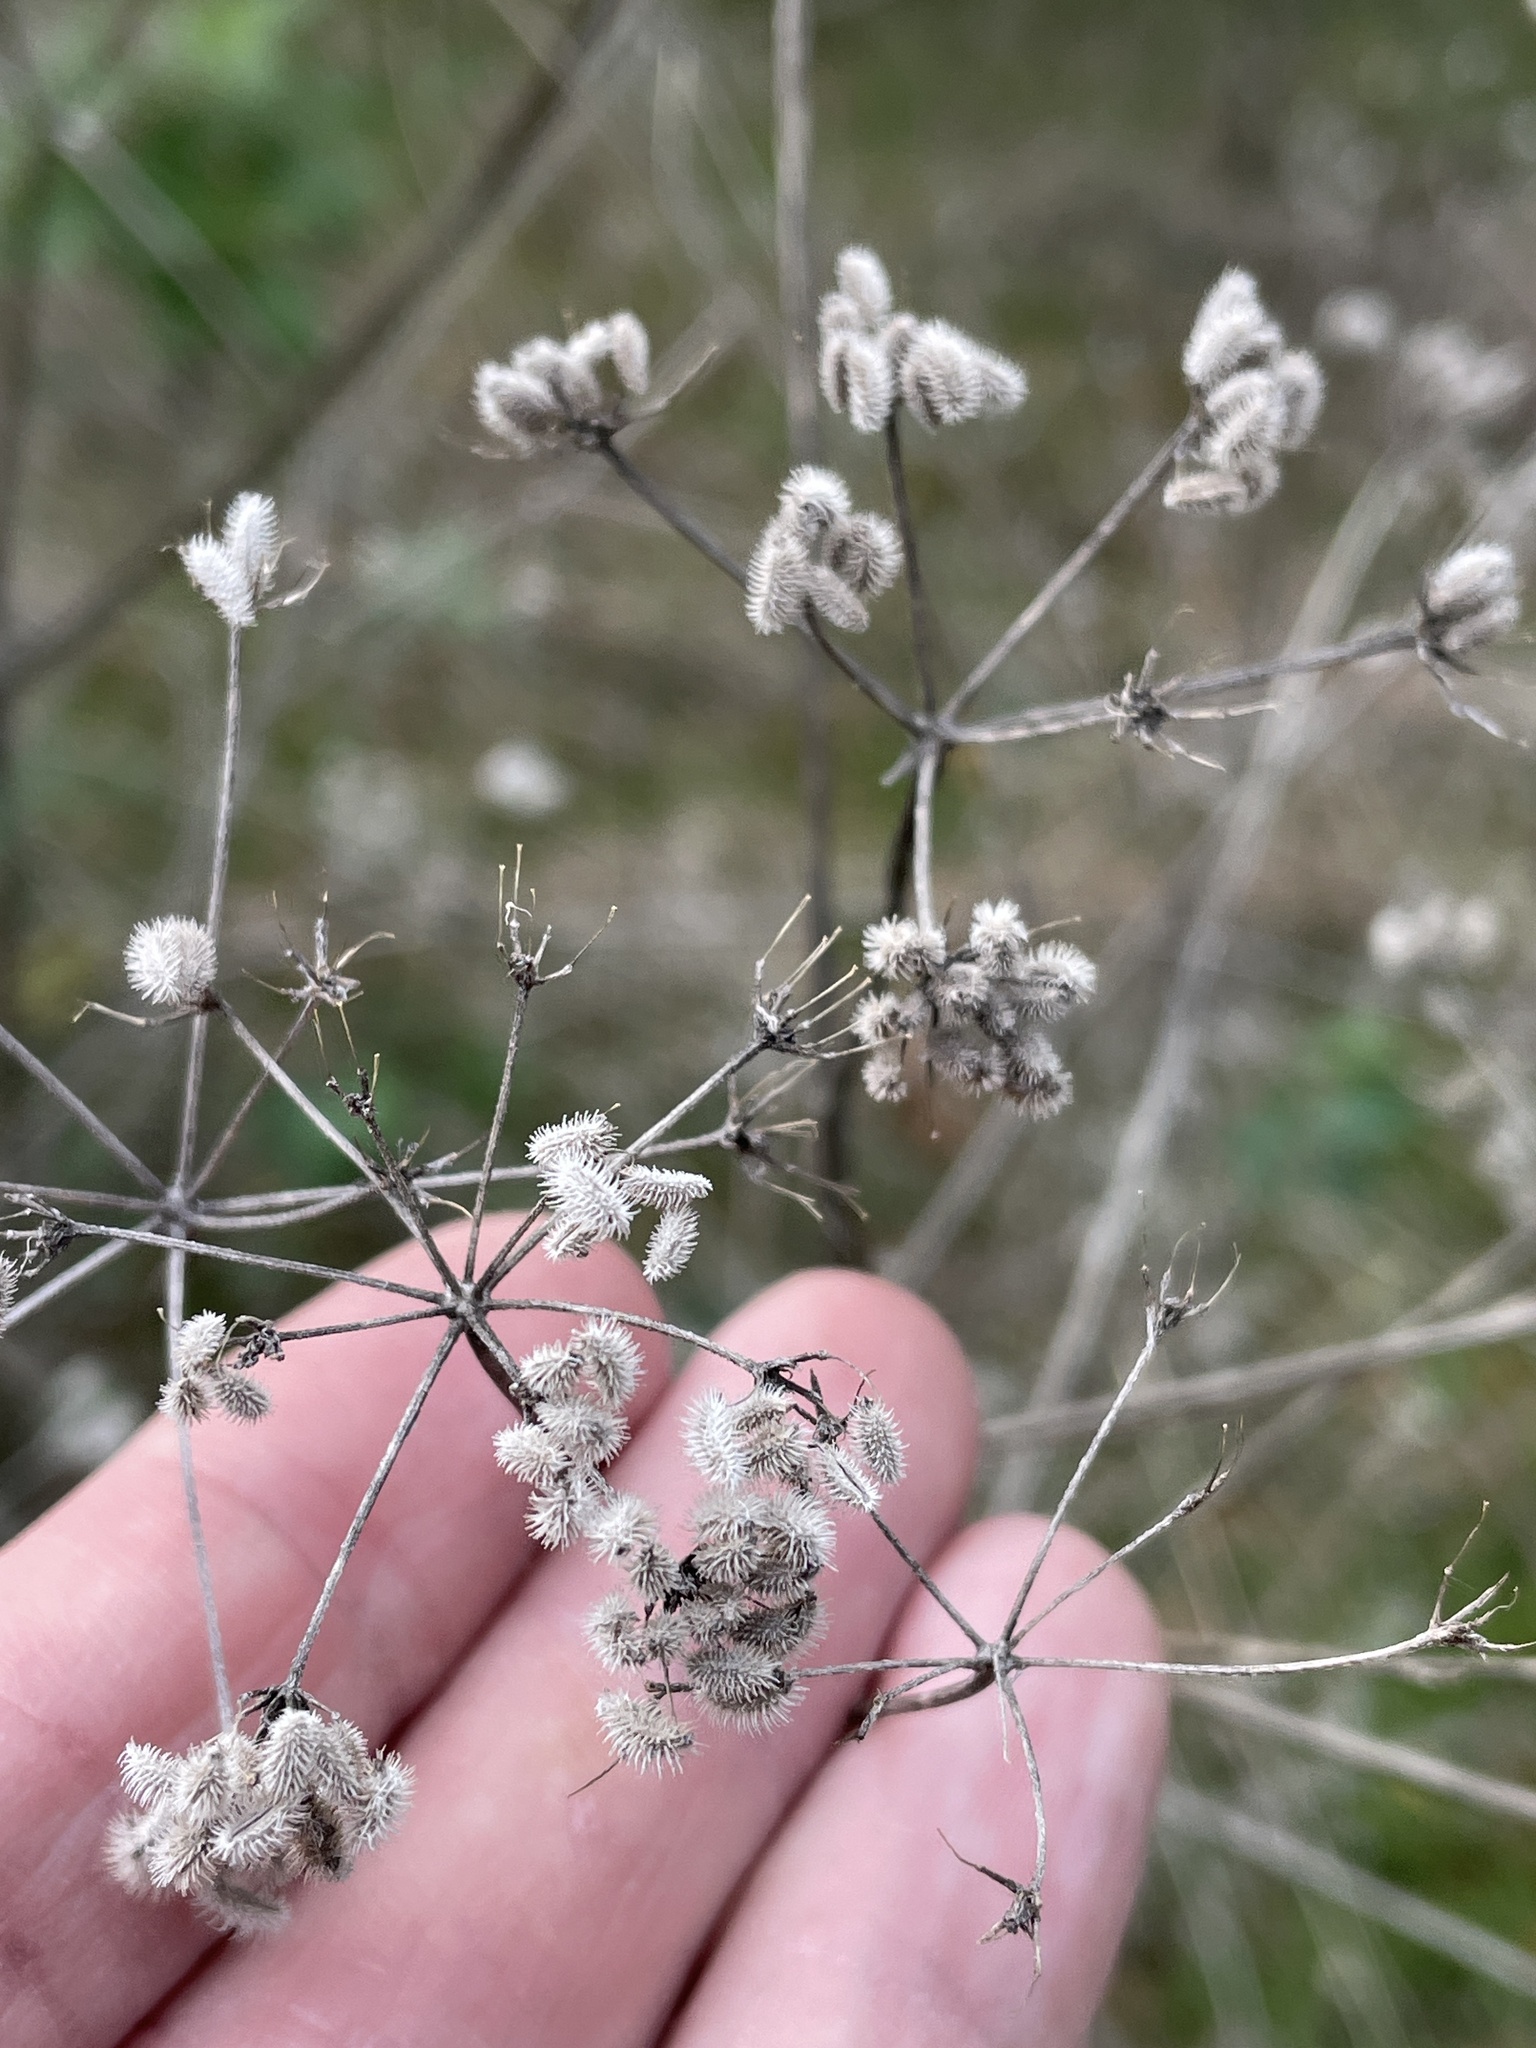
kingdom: Plantae
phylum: Tracheophyta
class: Magnoliopsida
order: Apiales
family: Apiaceae
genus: Torilis
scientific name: Torilis arvensis
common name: Spreading hedge-parsley
